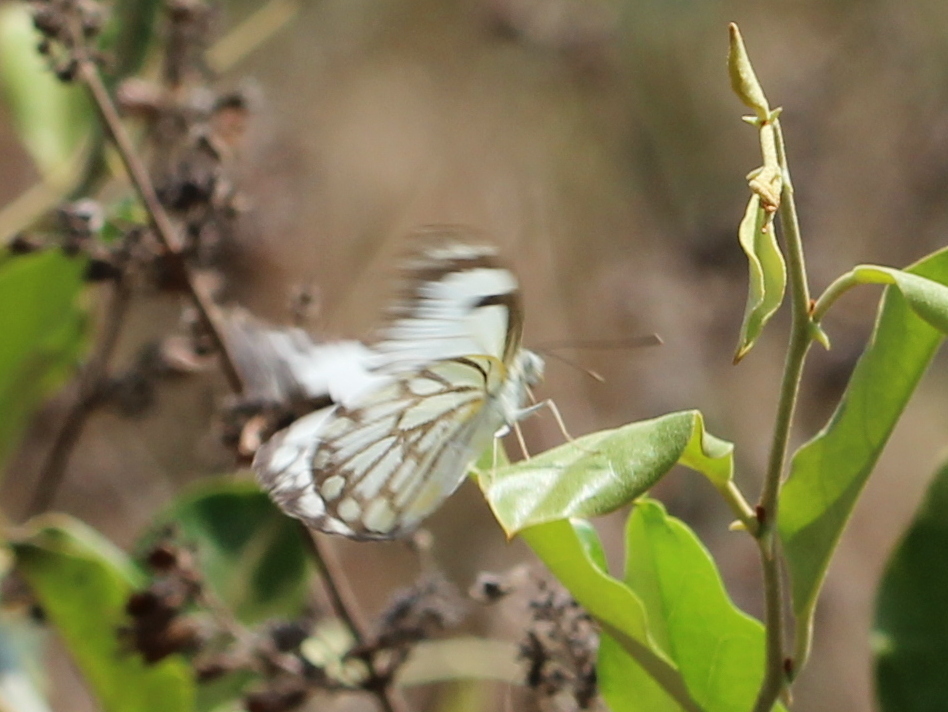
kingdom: Animalia
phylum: Arthropoda
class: Insecta
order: Lepidoptera
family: Pieridae
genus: Belenois
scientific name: Belenois aurota
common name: Brown-veined white
